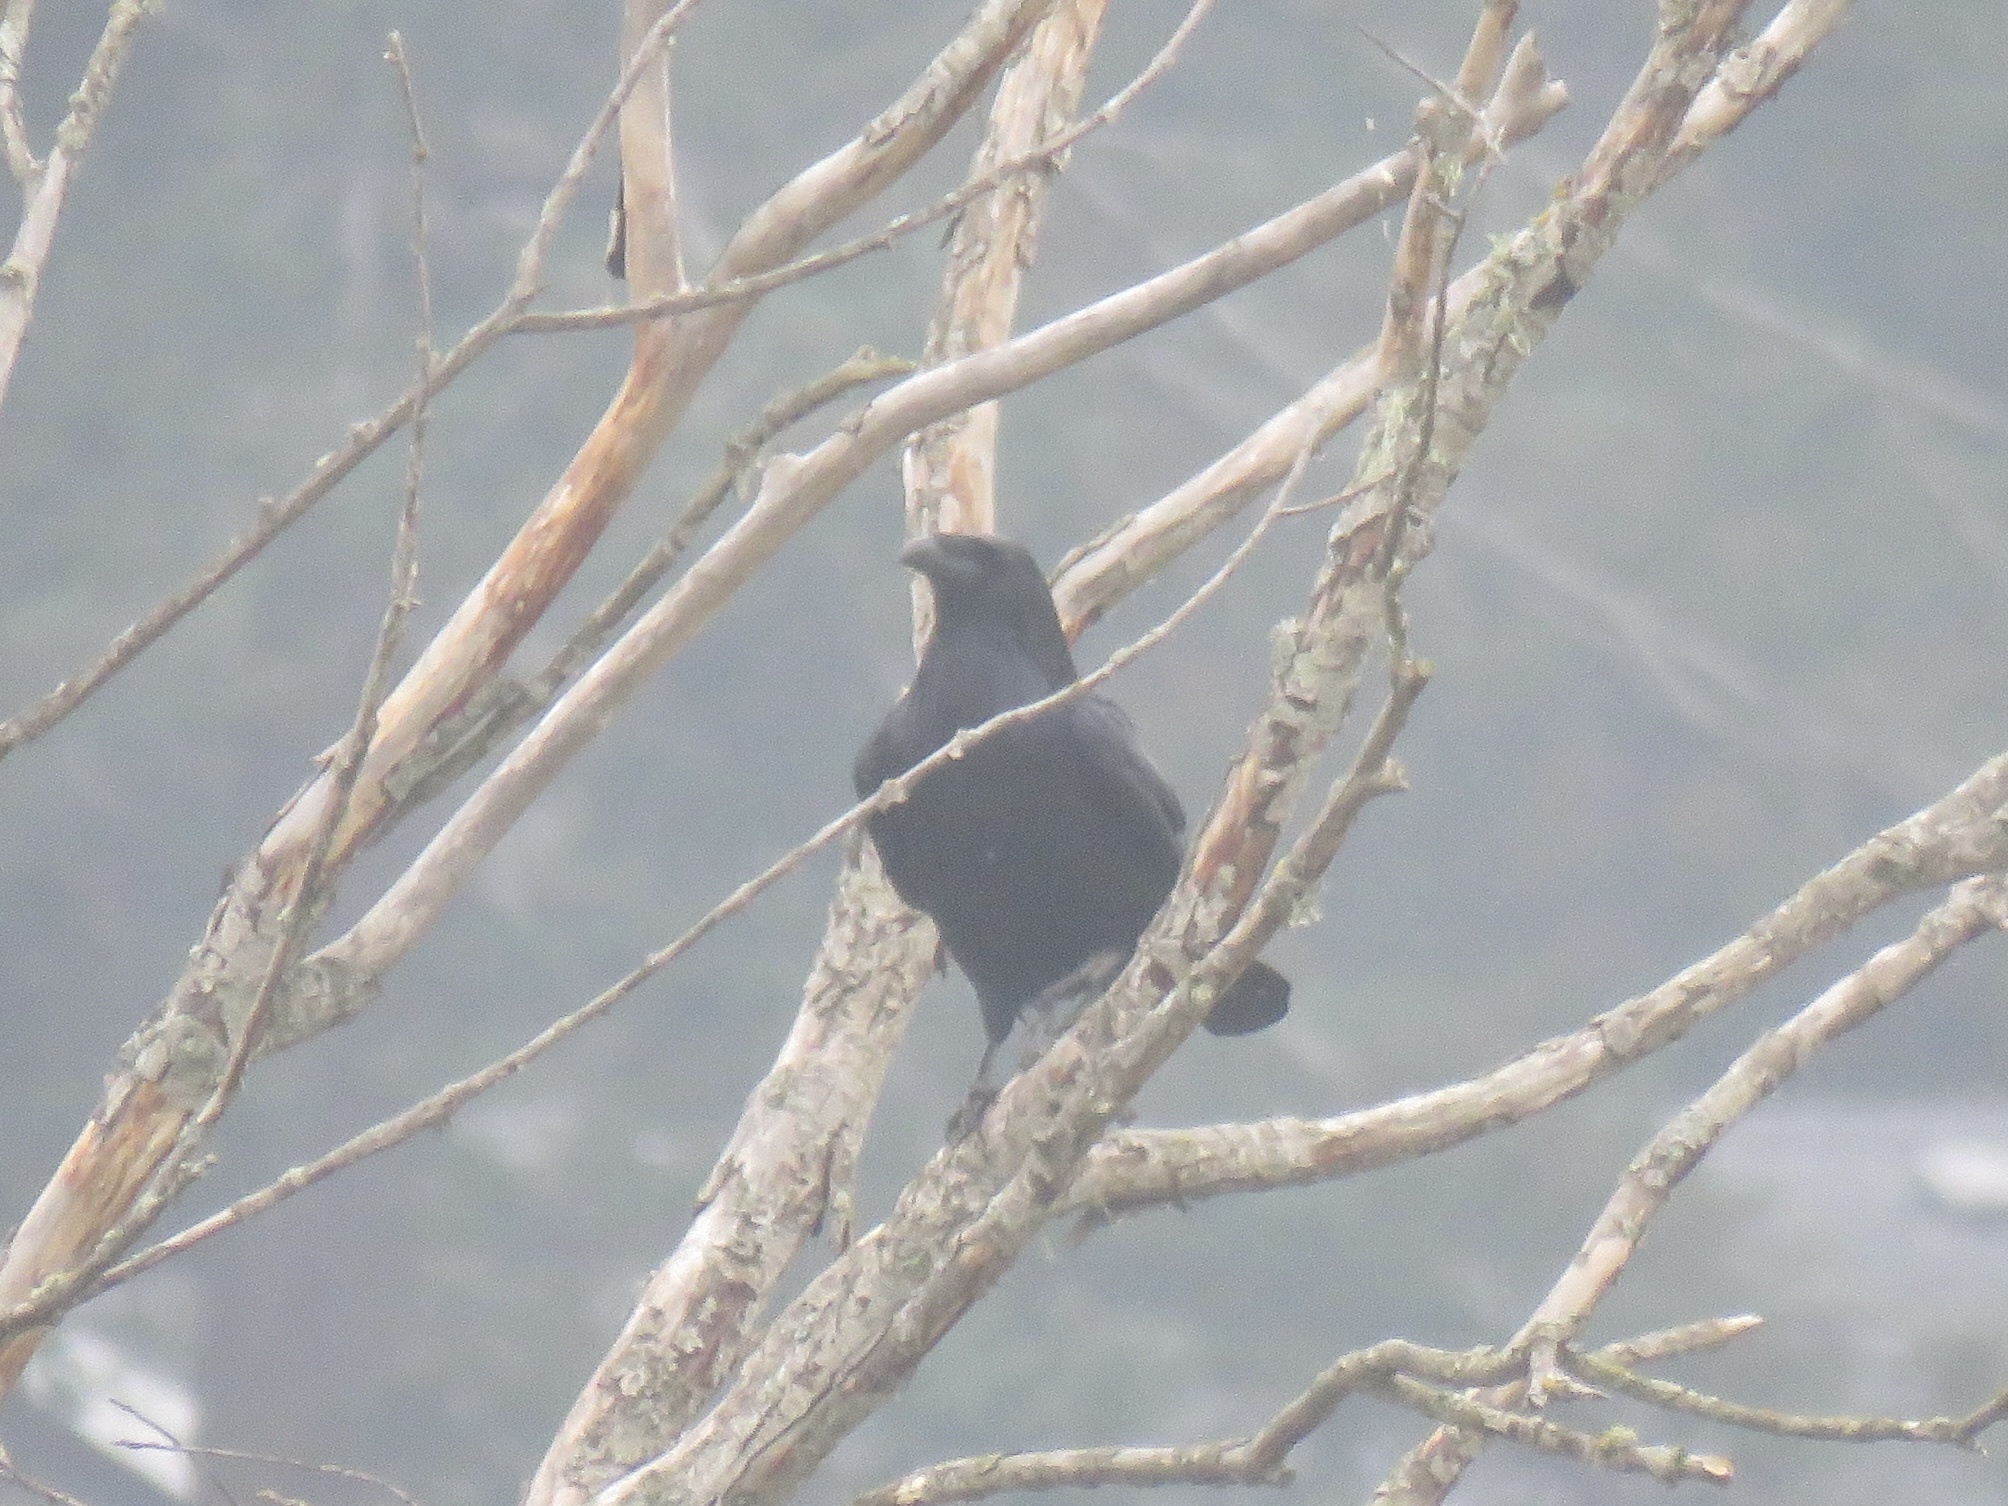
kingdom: Animalia
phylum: Chordata
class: Aves
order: Passeriformes
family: Corvidae
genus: Corvus
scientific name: Corvus corax
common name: Common raven
